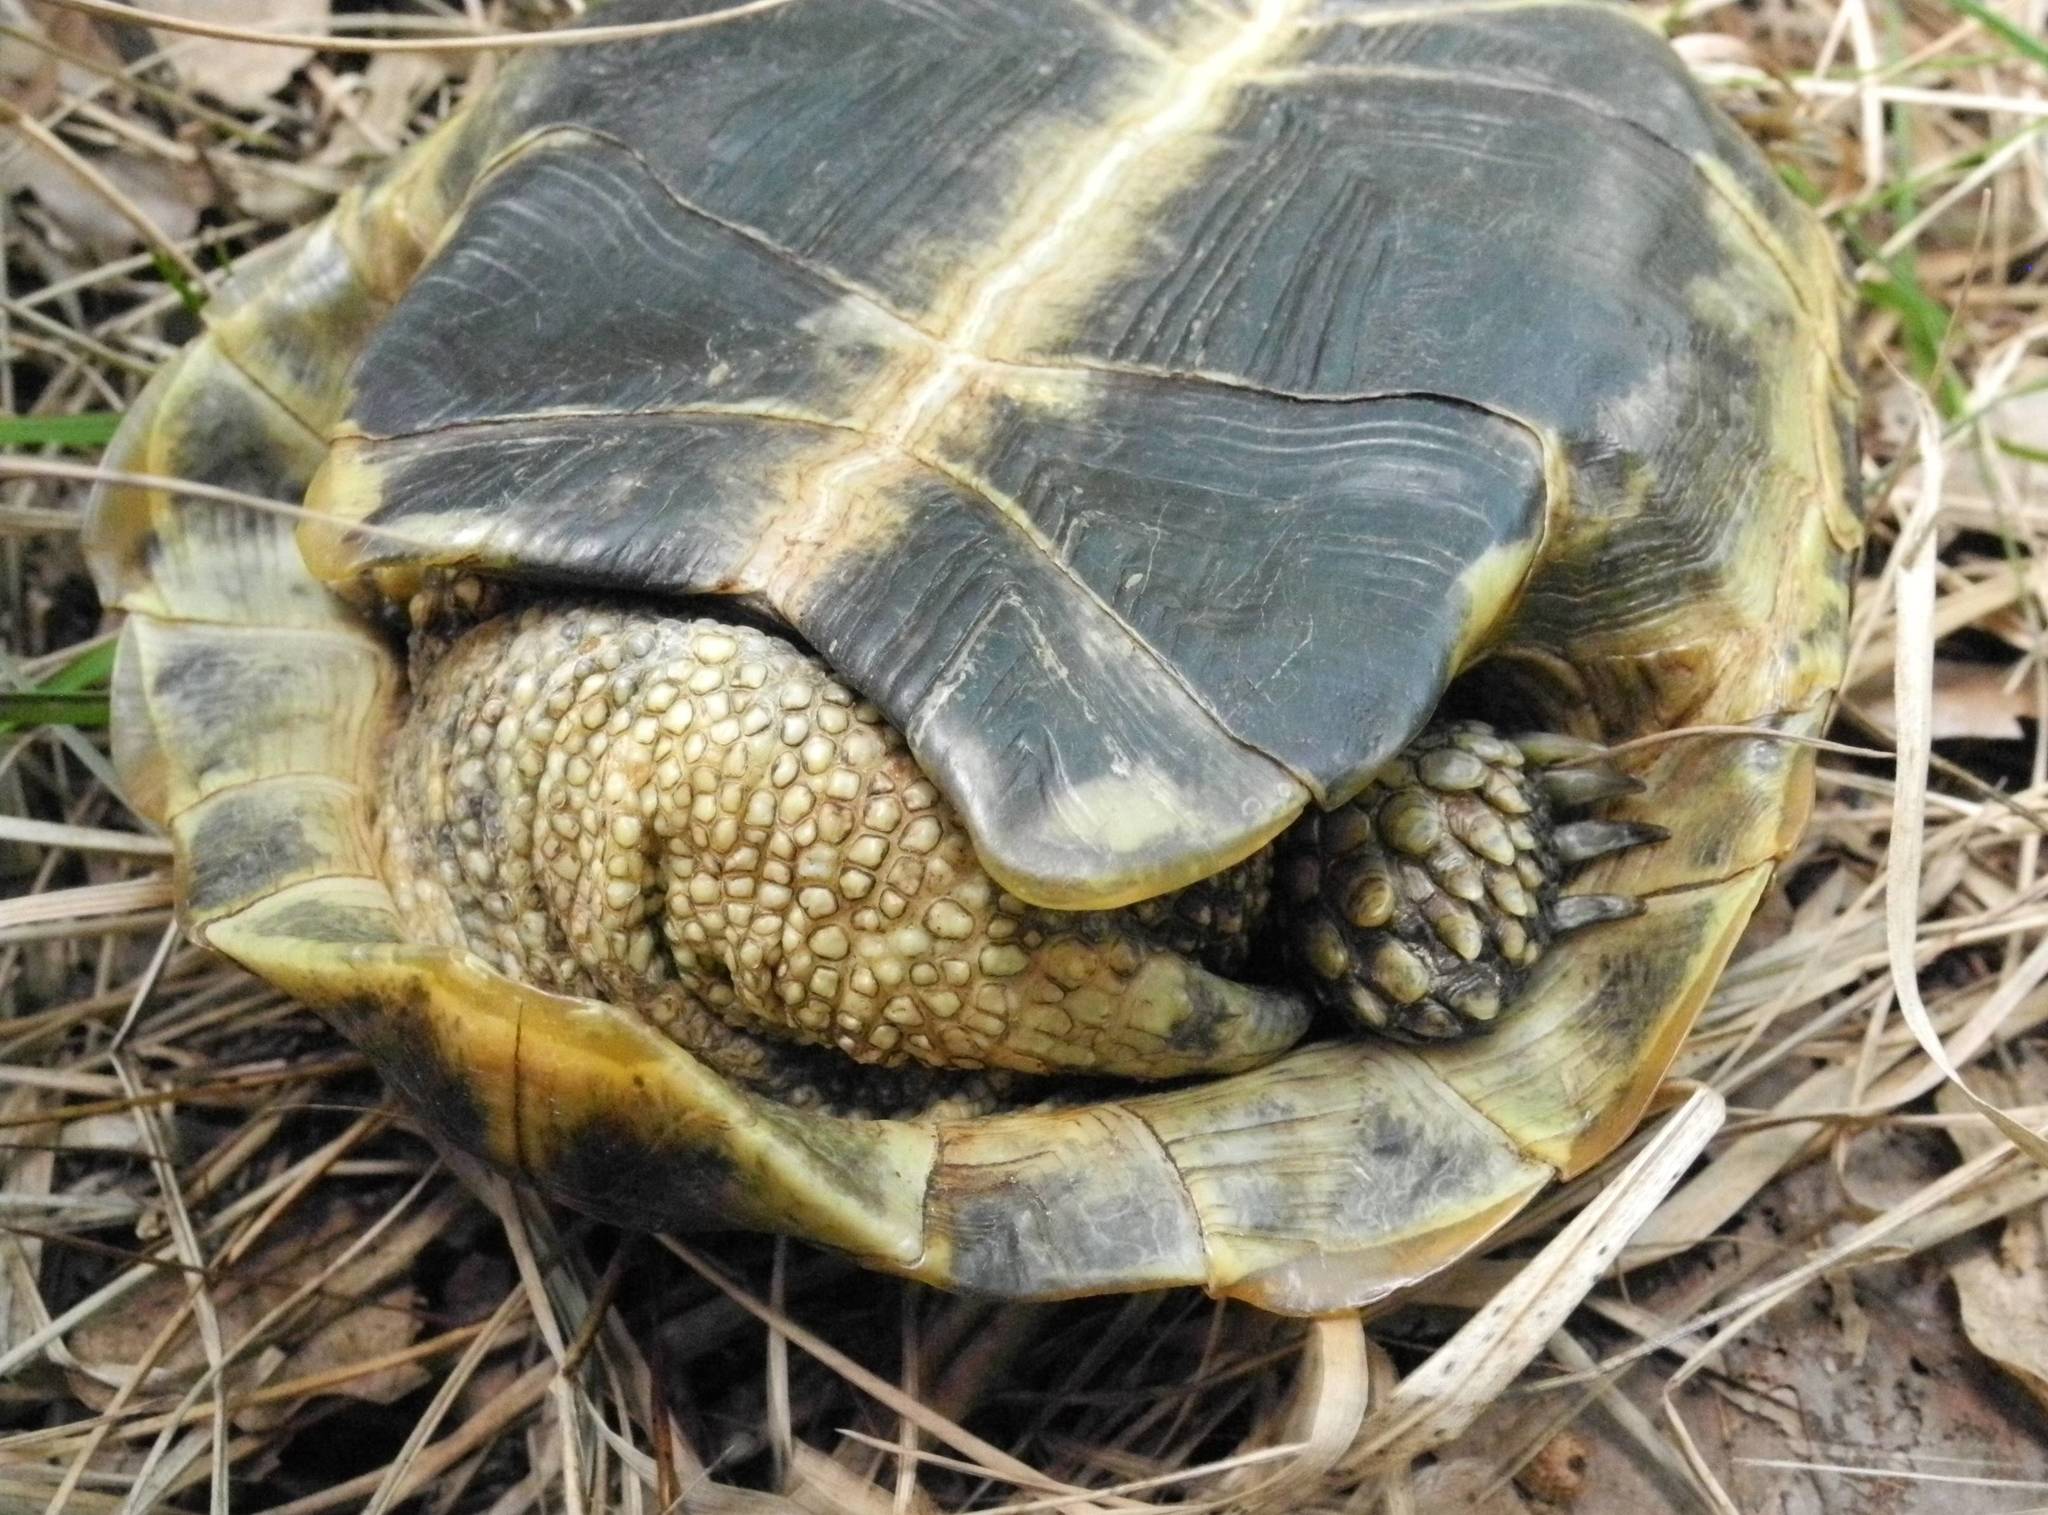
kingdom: Animalia
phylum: Chordata
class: Testudines
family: Testudinidae
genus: Testudo
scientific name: Testudo graeca
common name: Common tortoise
